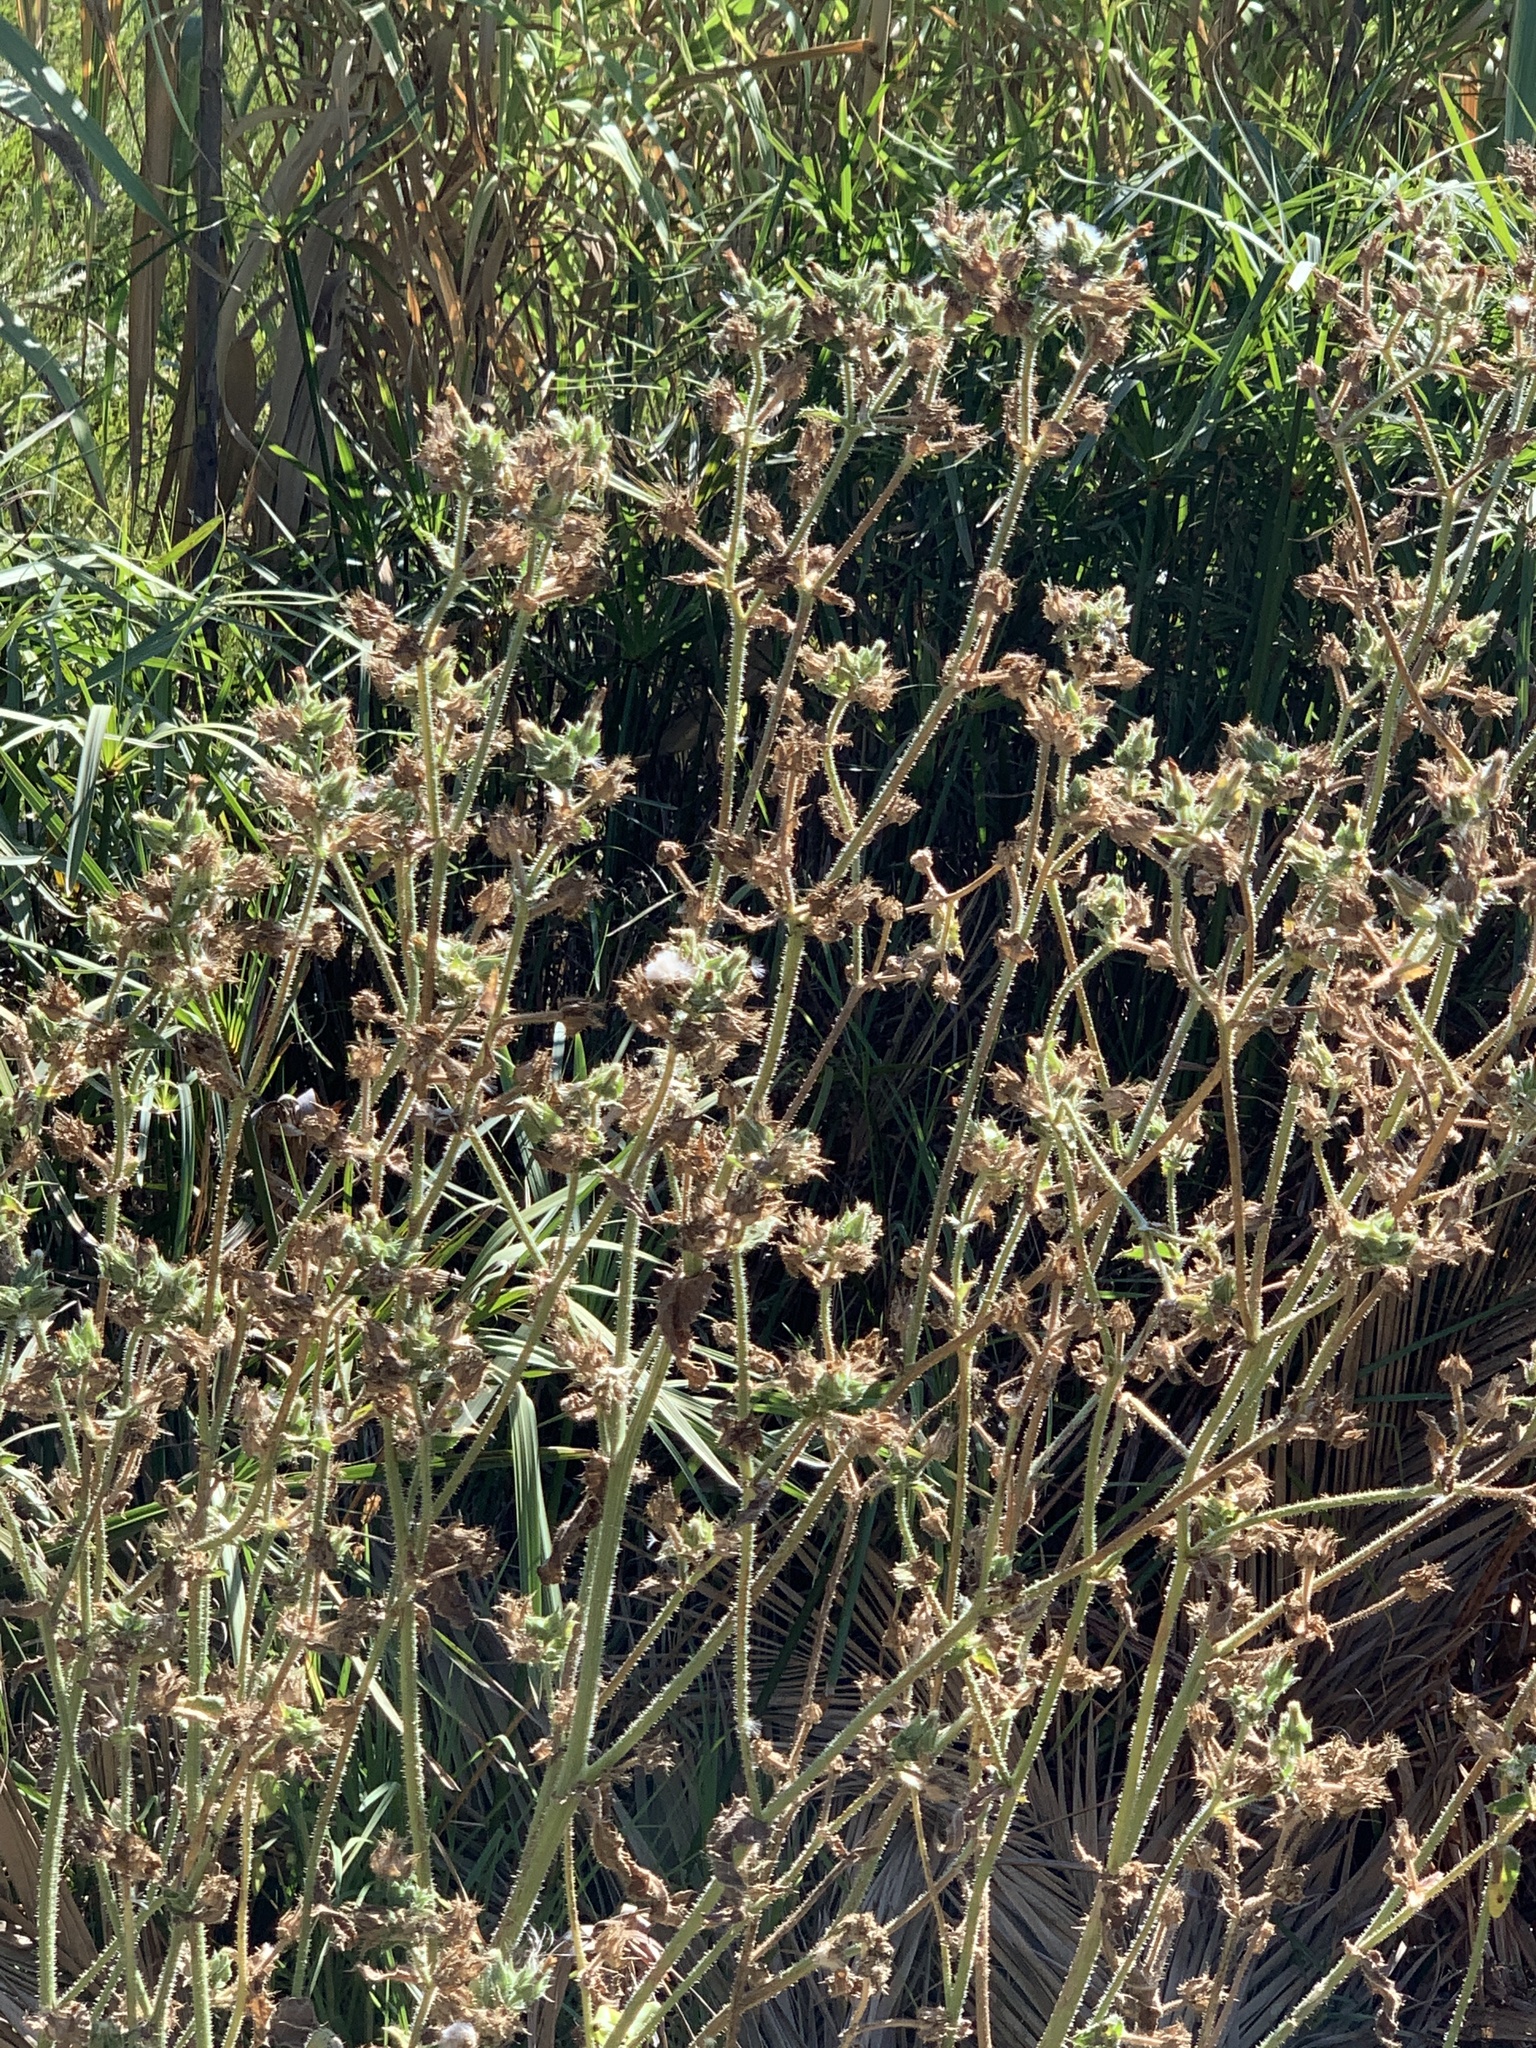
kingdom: Plantae
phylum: Tracheophyta
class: Magnoliopsida
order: Asterales
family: Asteraceae
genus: Helminthotheca
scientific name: Helminthotheca echioides
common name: Ox-tongue
